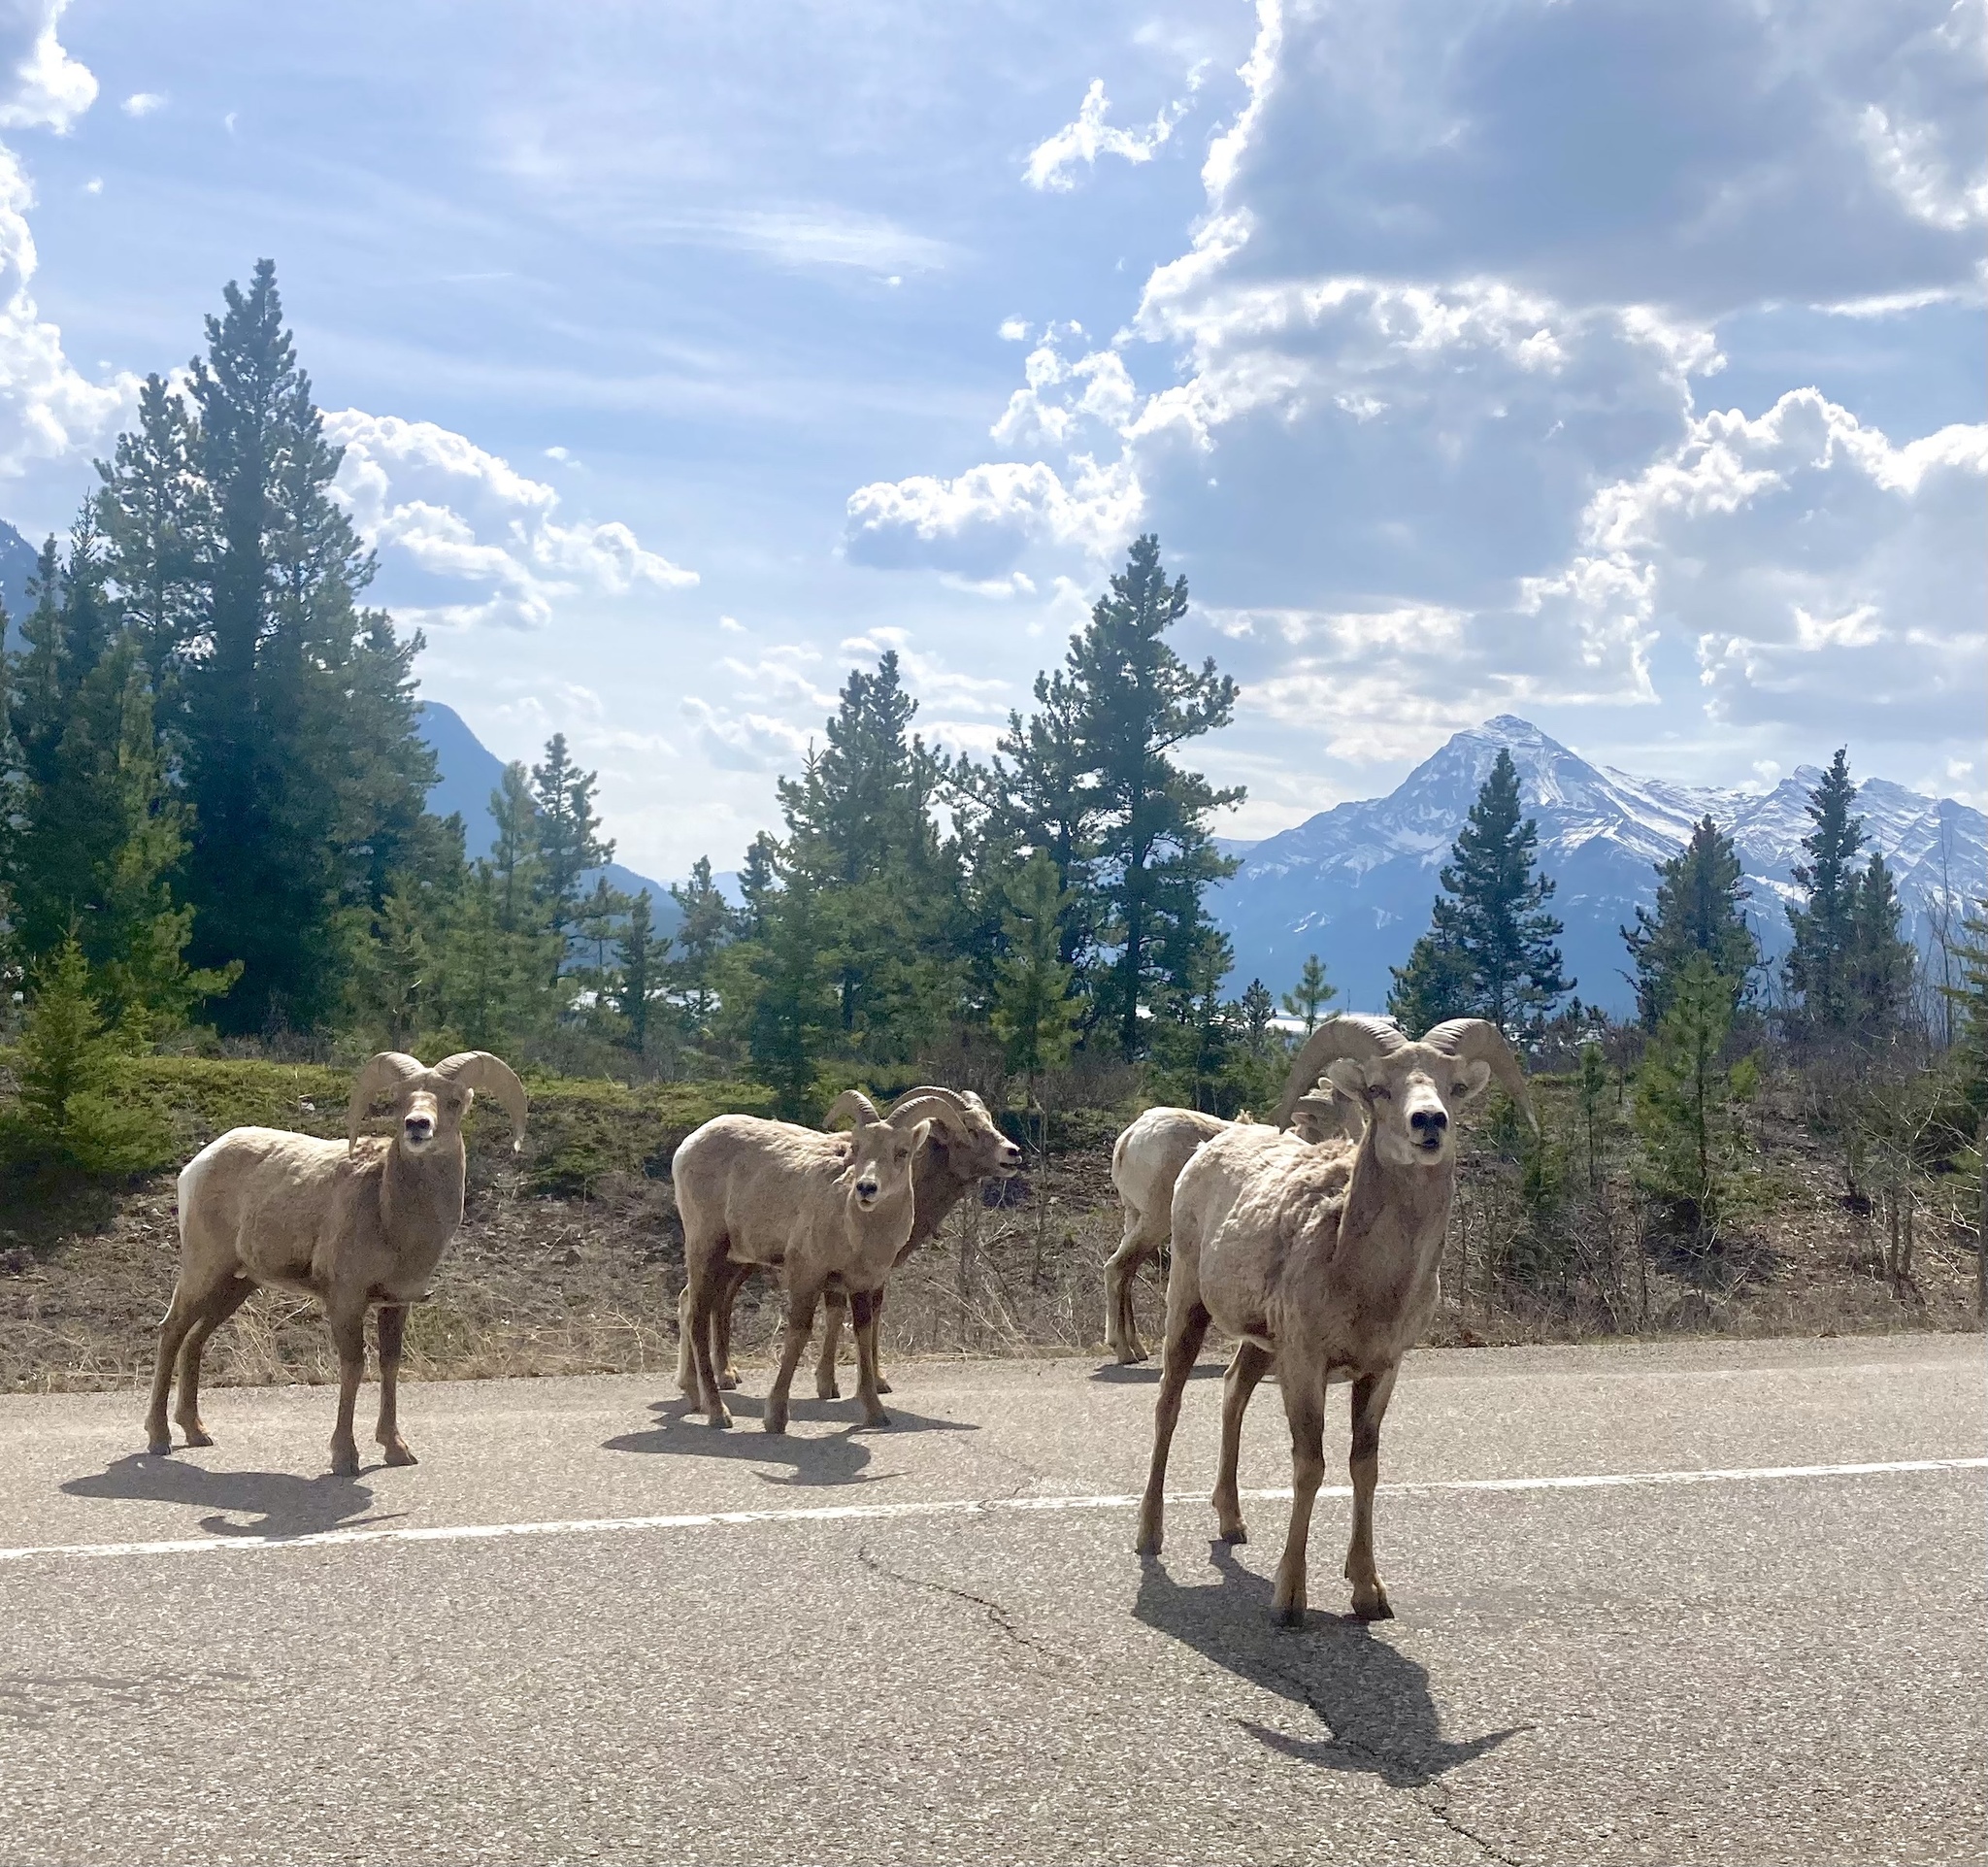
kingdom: Animalia
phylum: Chordata
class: Mammalia
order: Artiodactyla
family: Bovidae
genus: Ovis
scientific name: Ovis canadensis
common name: Bighorn sheep
